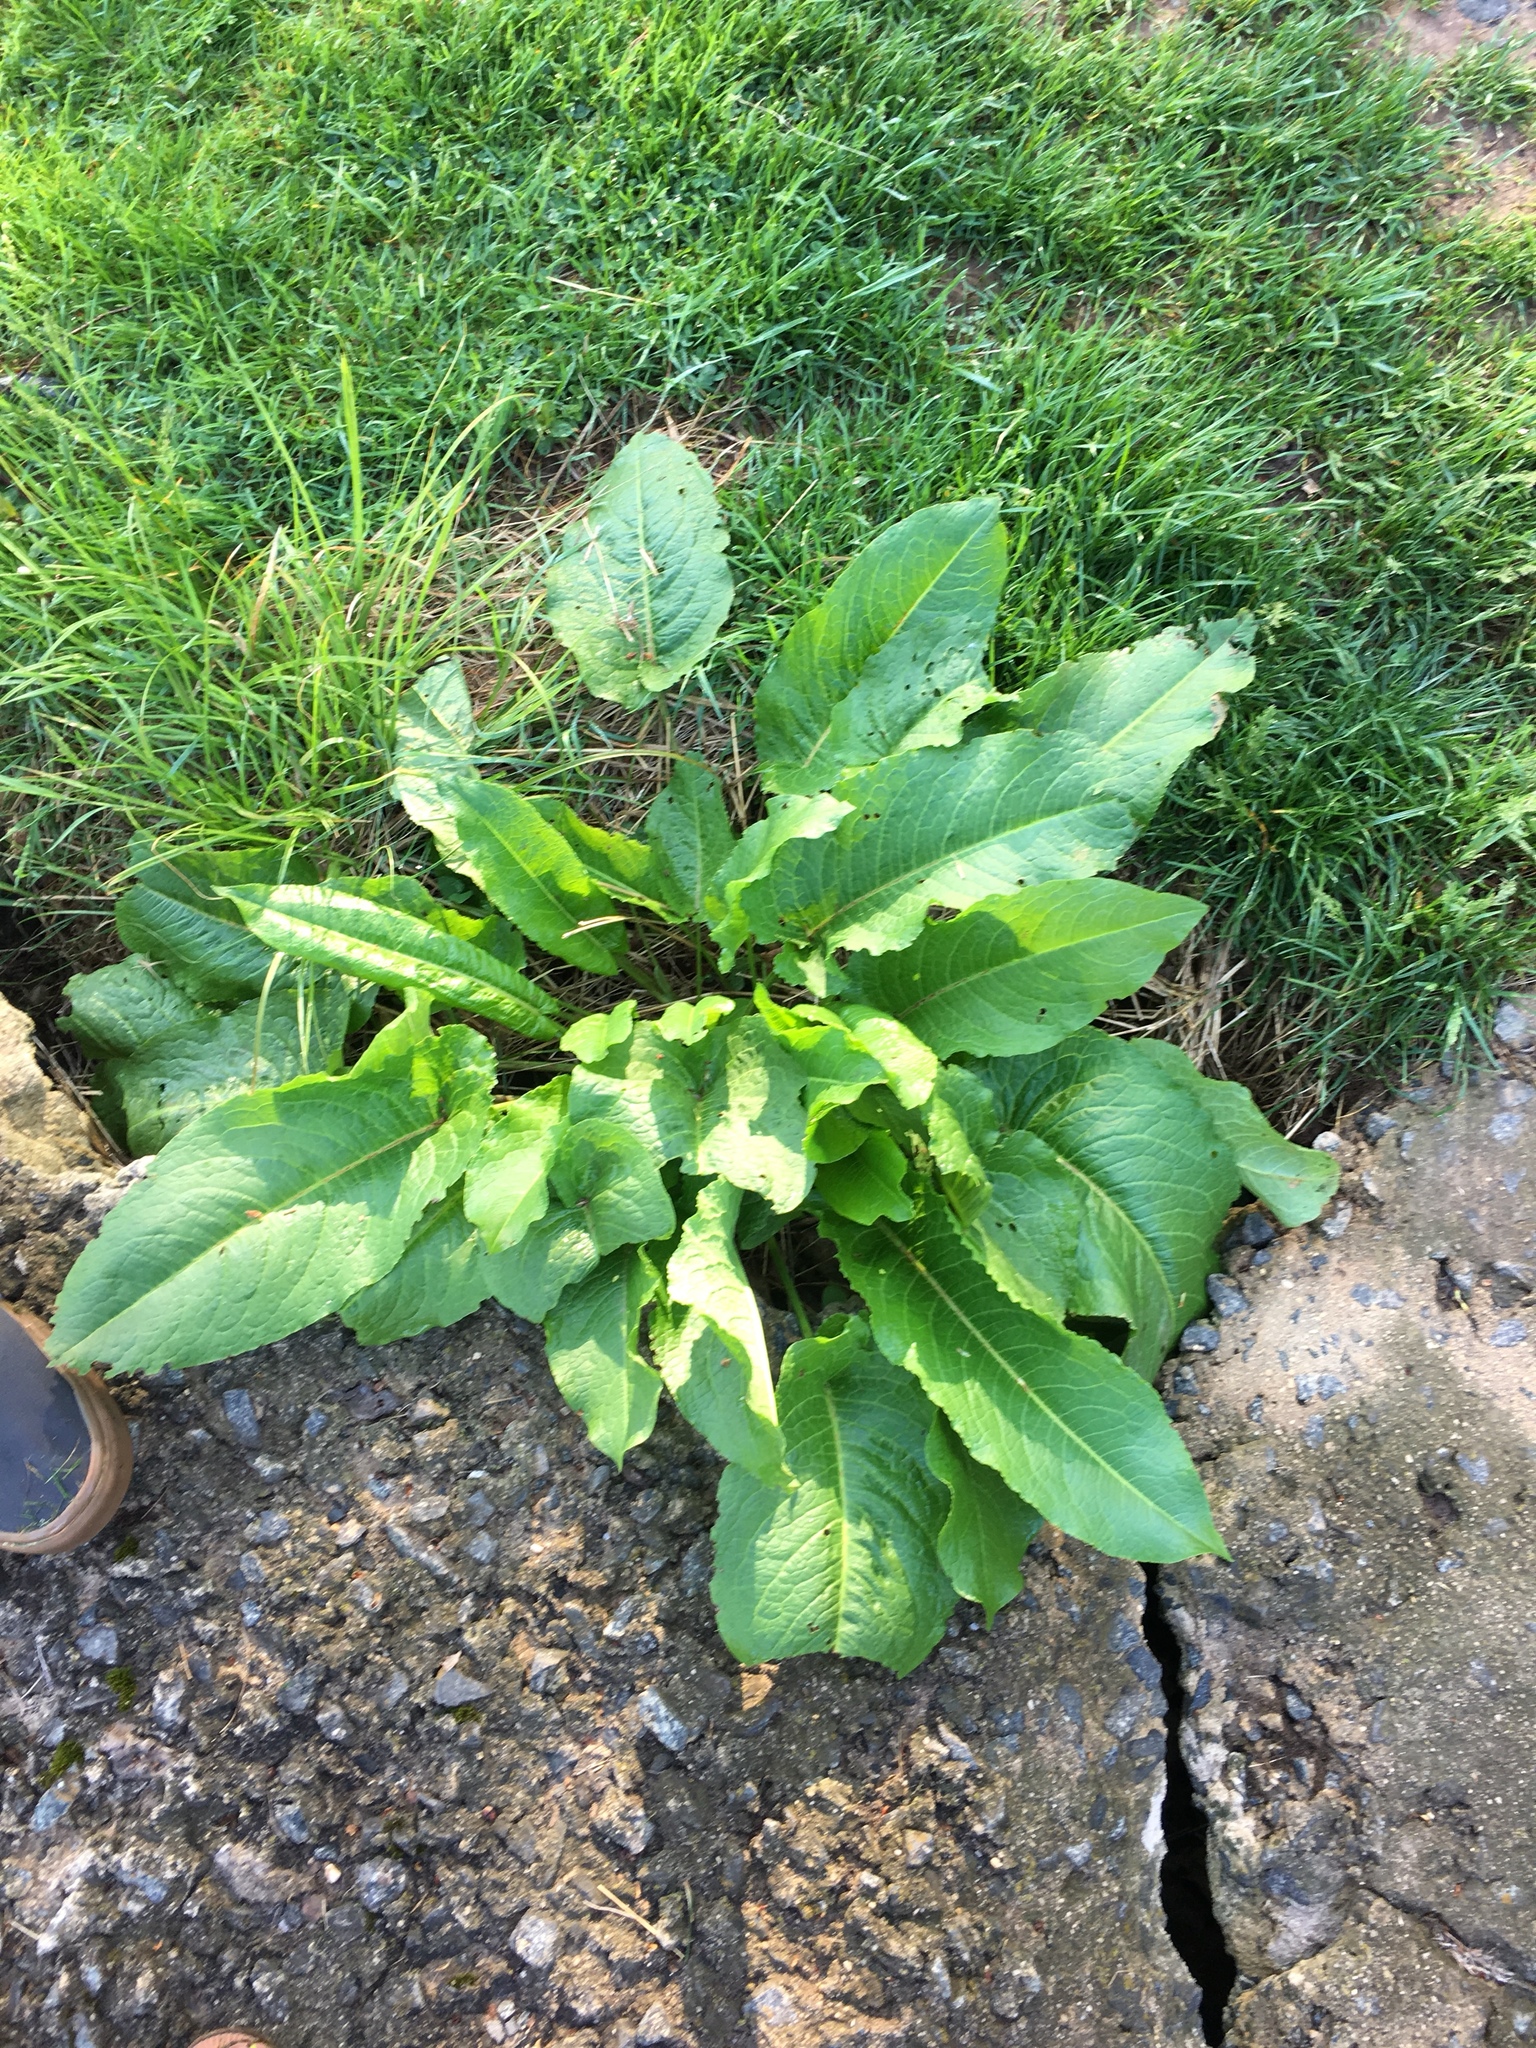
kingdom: Plantae
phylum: Tracheophyta
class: Magnoliopsida
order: Caryophyllales
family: Polygonaceae
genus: Rumex
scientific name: Rumex obtusifolius
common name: Bitter dock
